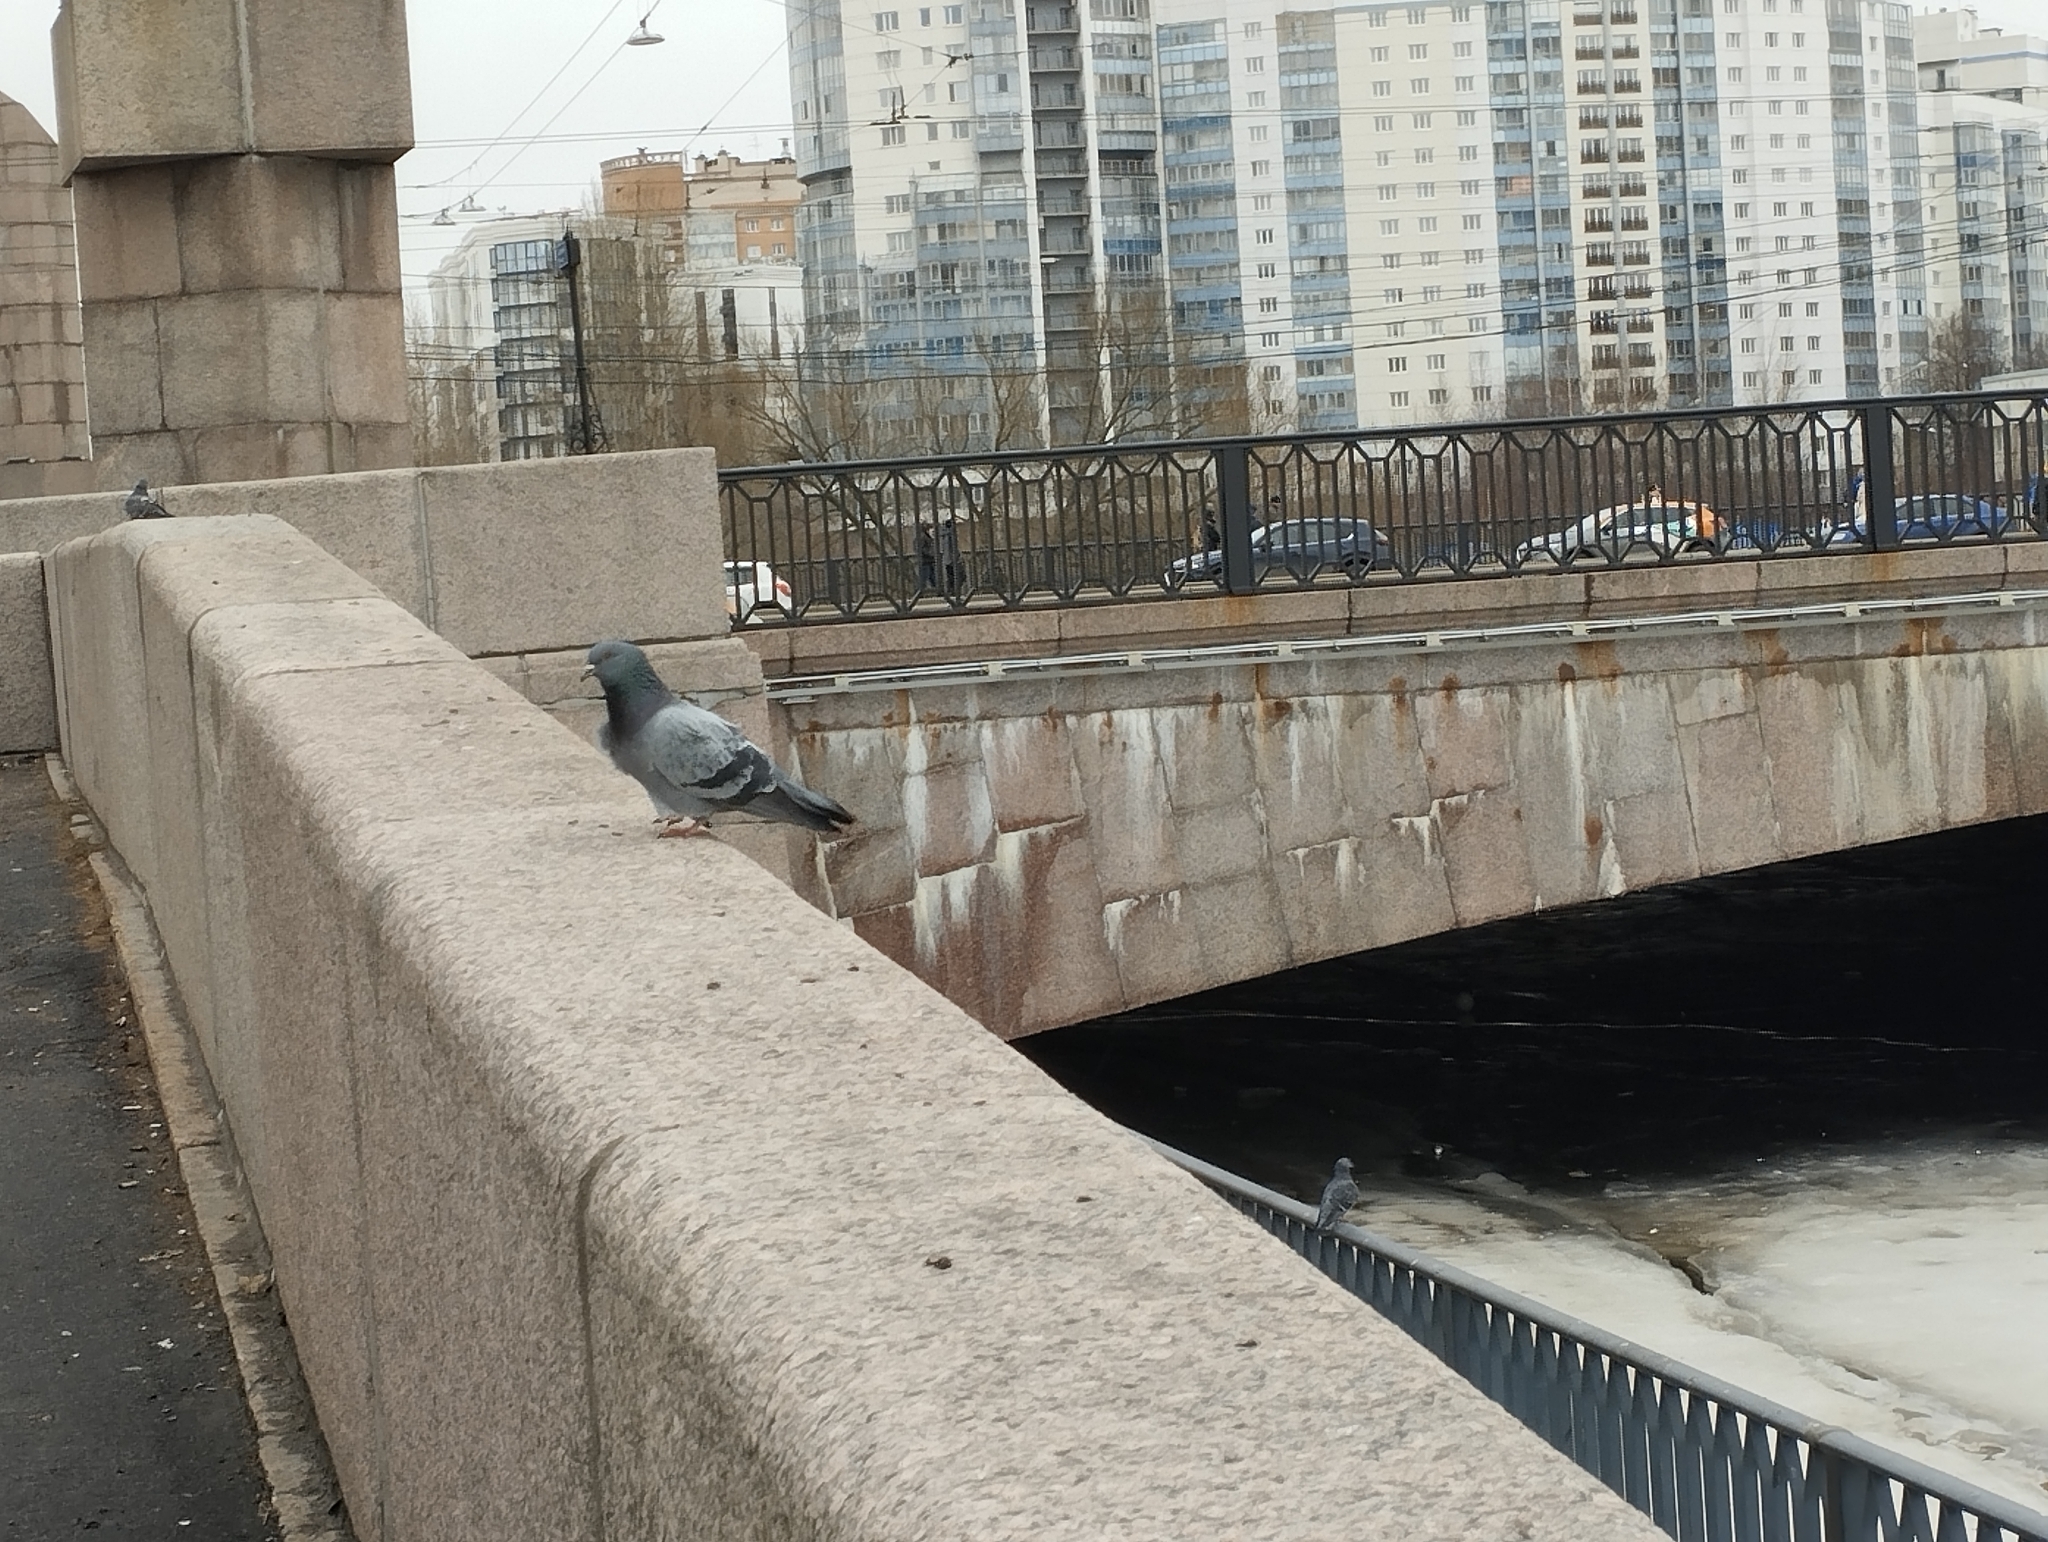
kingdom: Animalia
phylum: Chordata
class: Aves
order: Columbiformes
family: Columbidae
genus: Columba
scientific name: Columba livia
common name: Rock pigeon
